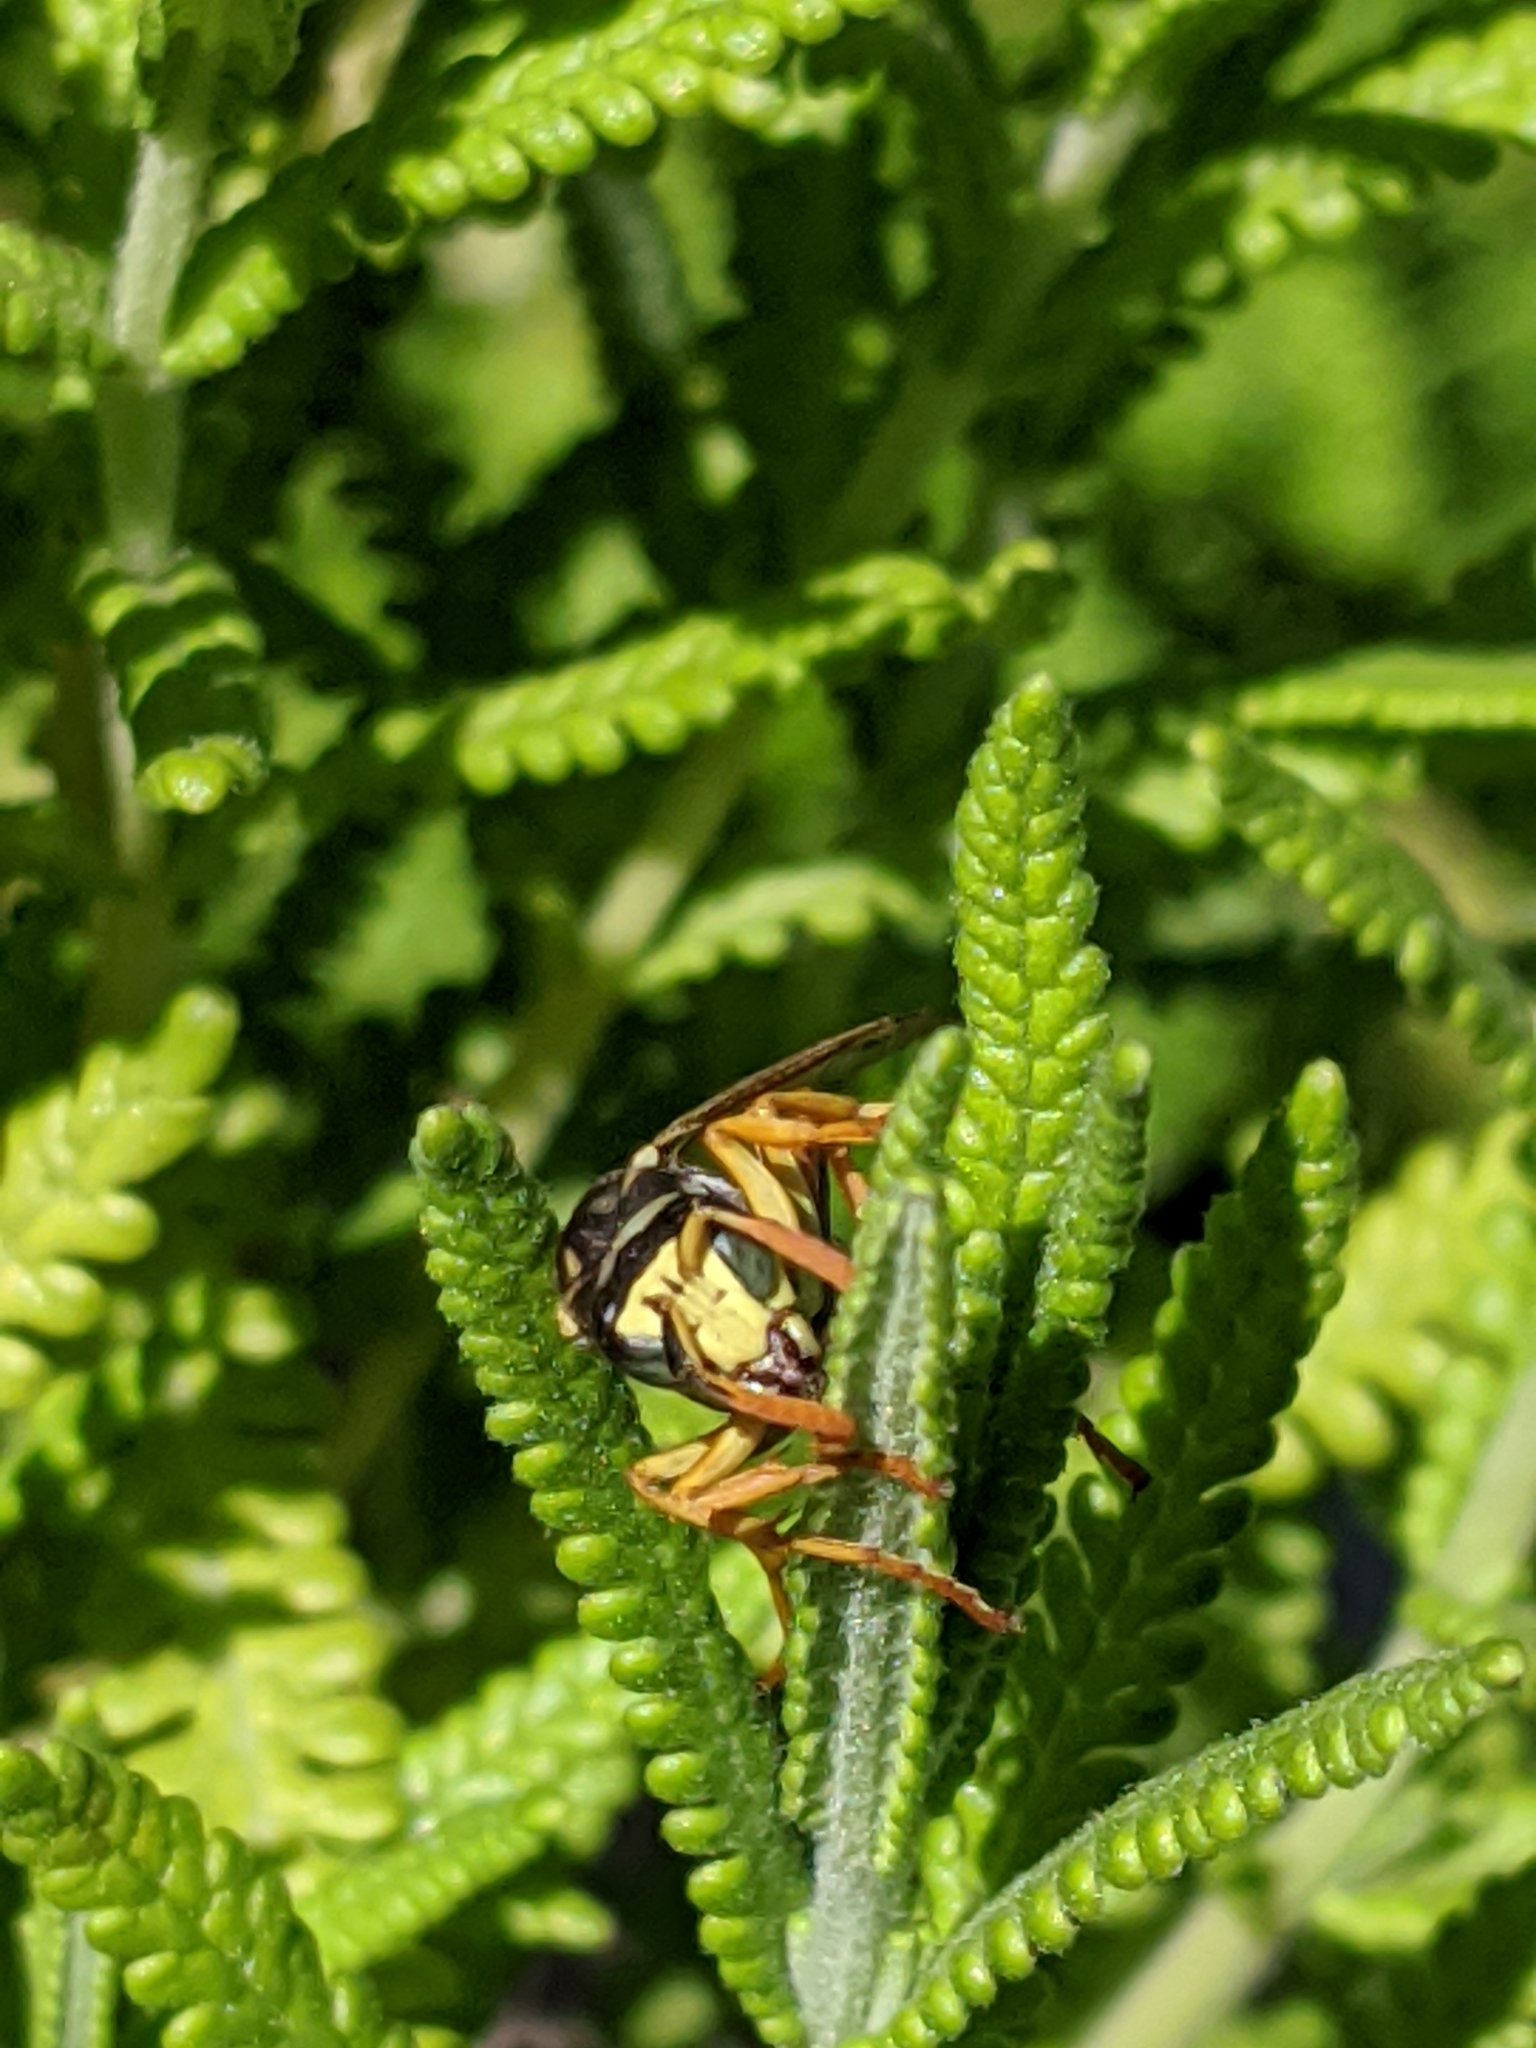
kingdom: Animalia
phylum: Arthropoda
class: Insecta
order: Hymenoptera
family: Eumenidae
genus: Polistes
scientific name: Polistes dominula
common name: Paper wasp
